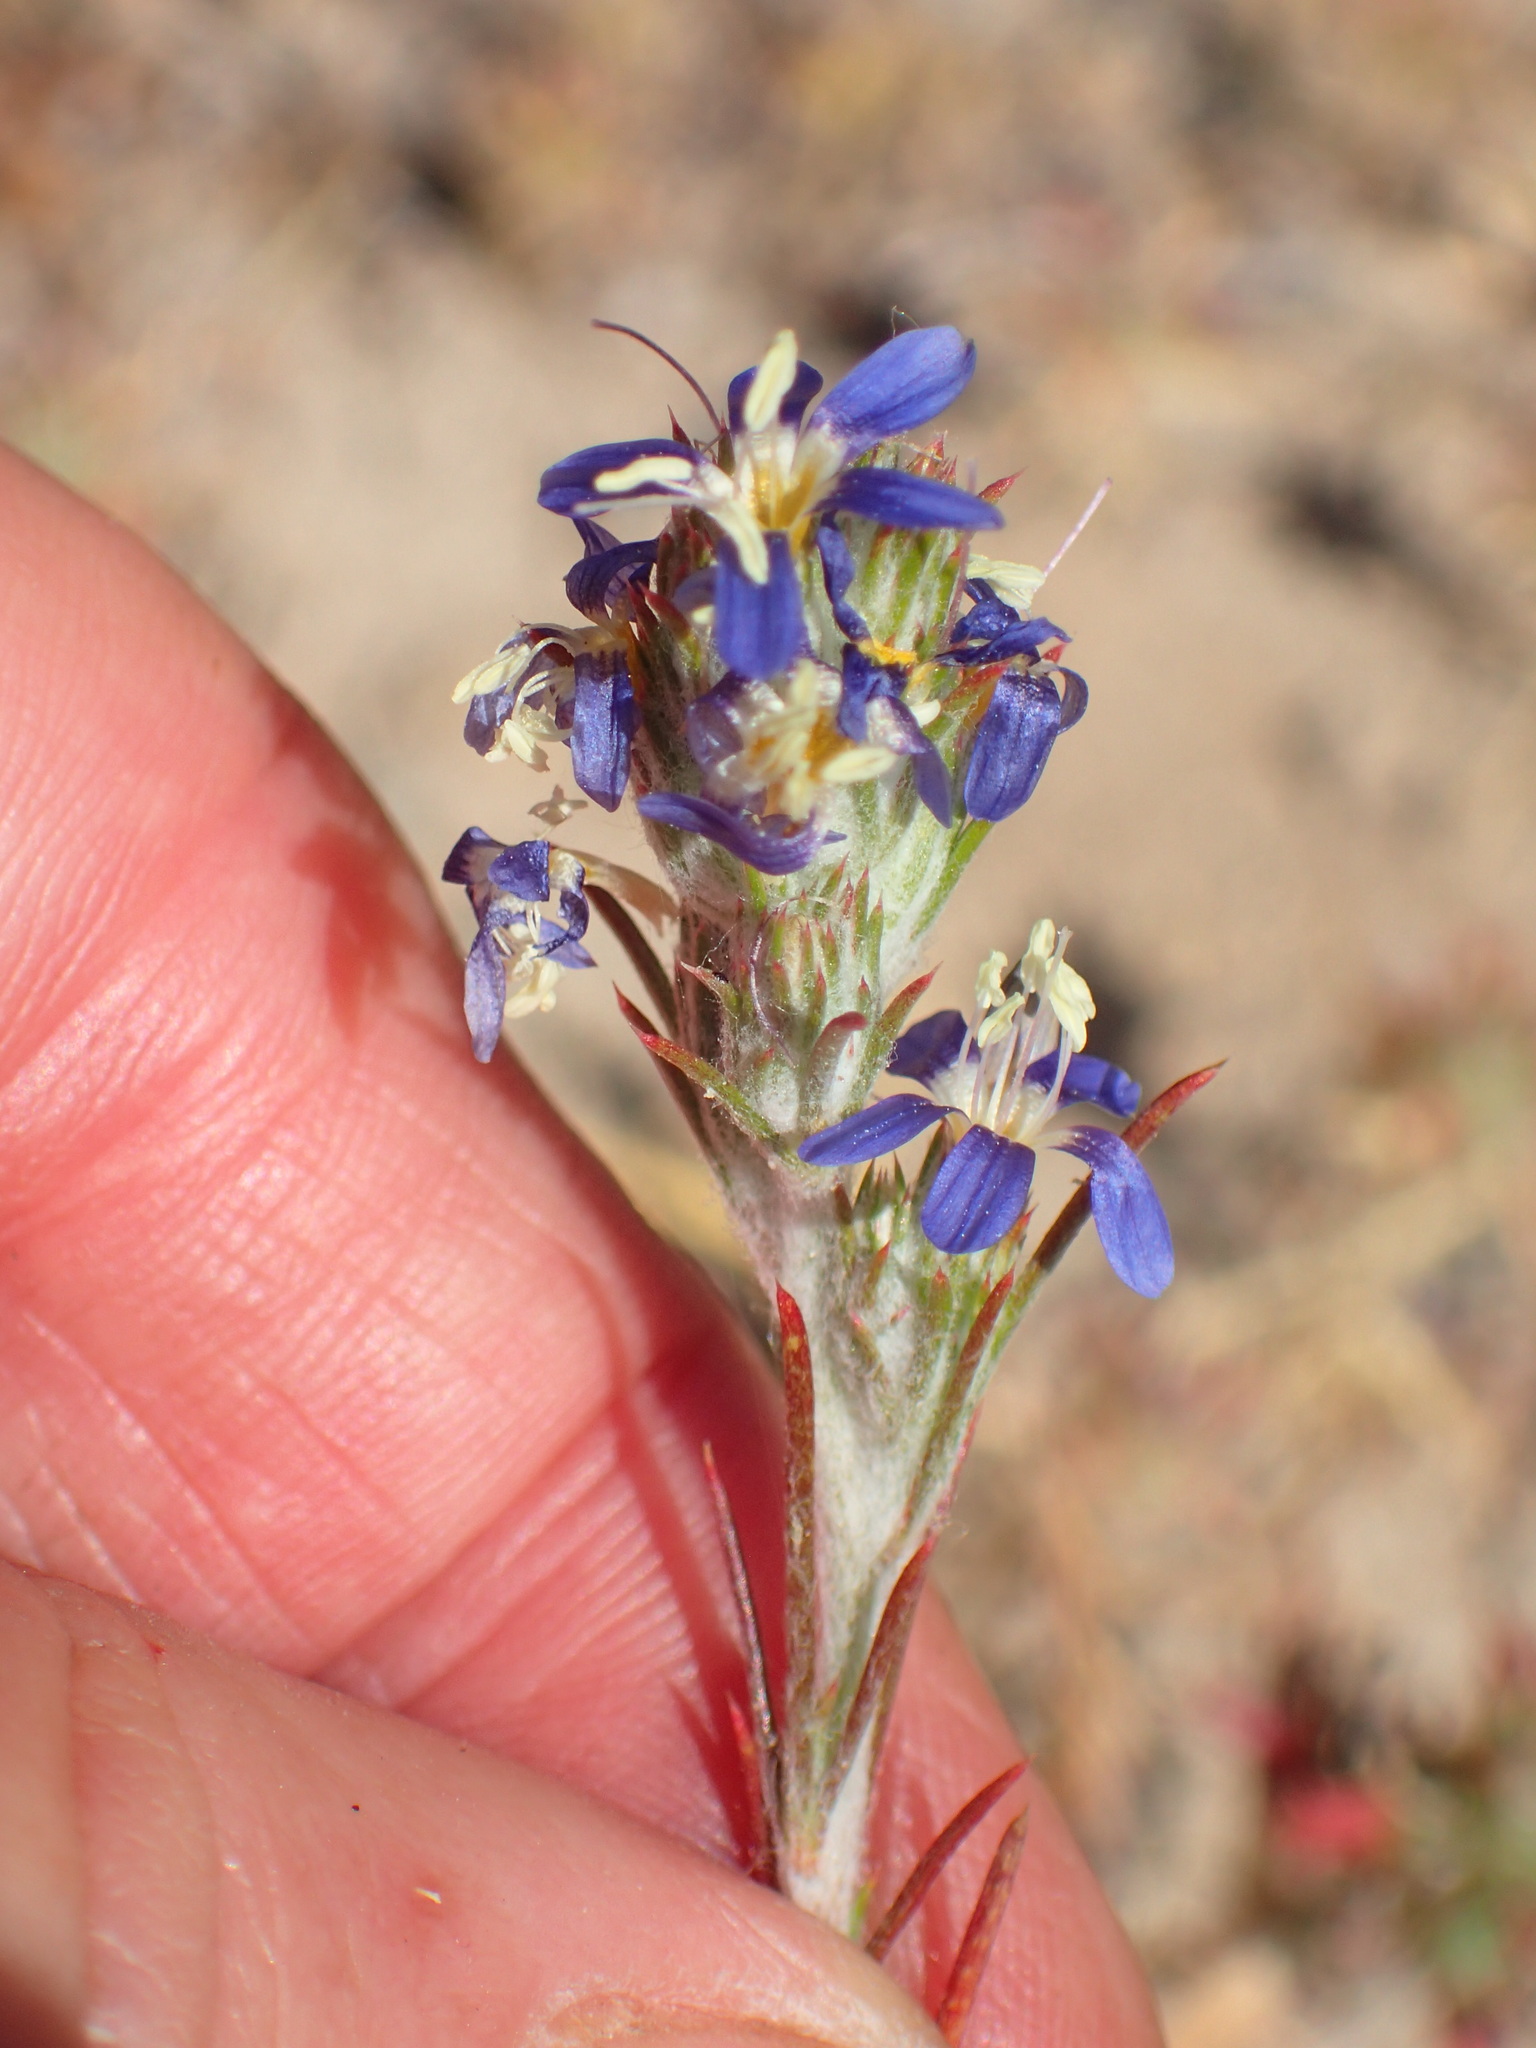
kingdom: Plantae
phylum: Tracheophyta
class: Magnoliopsida
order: Ericales
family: Polemoniaceae
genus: Eriastrum
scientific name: Eriastrum sapphirinum
